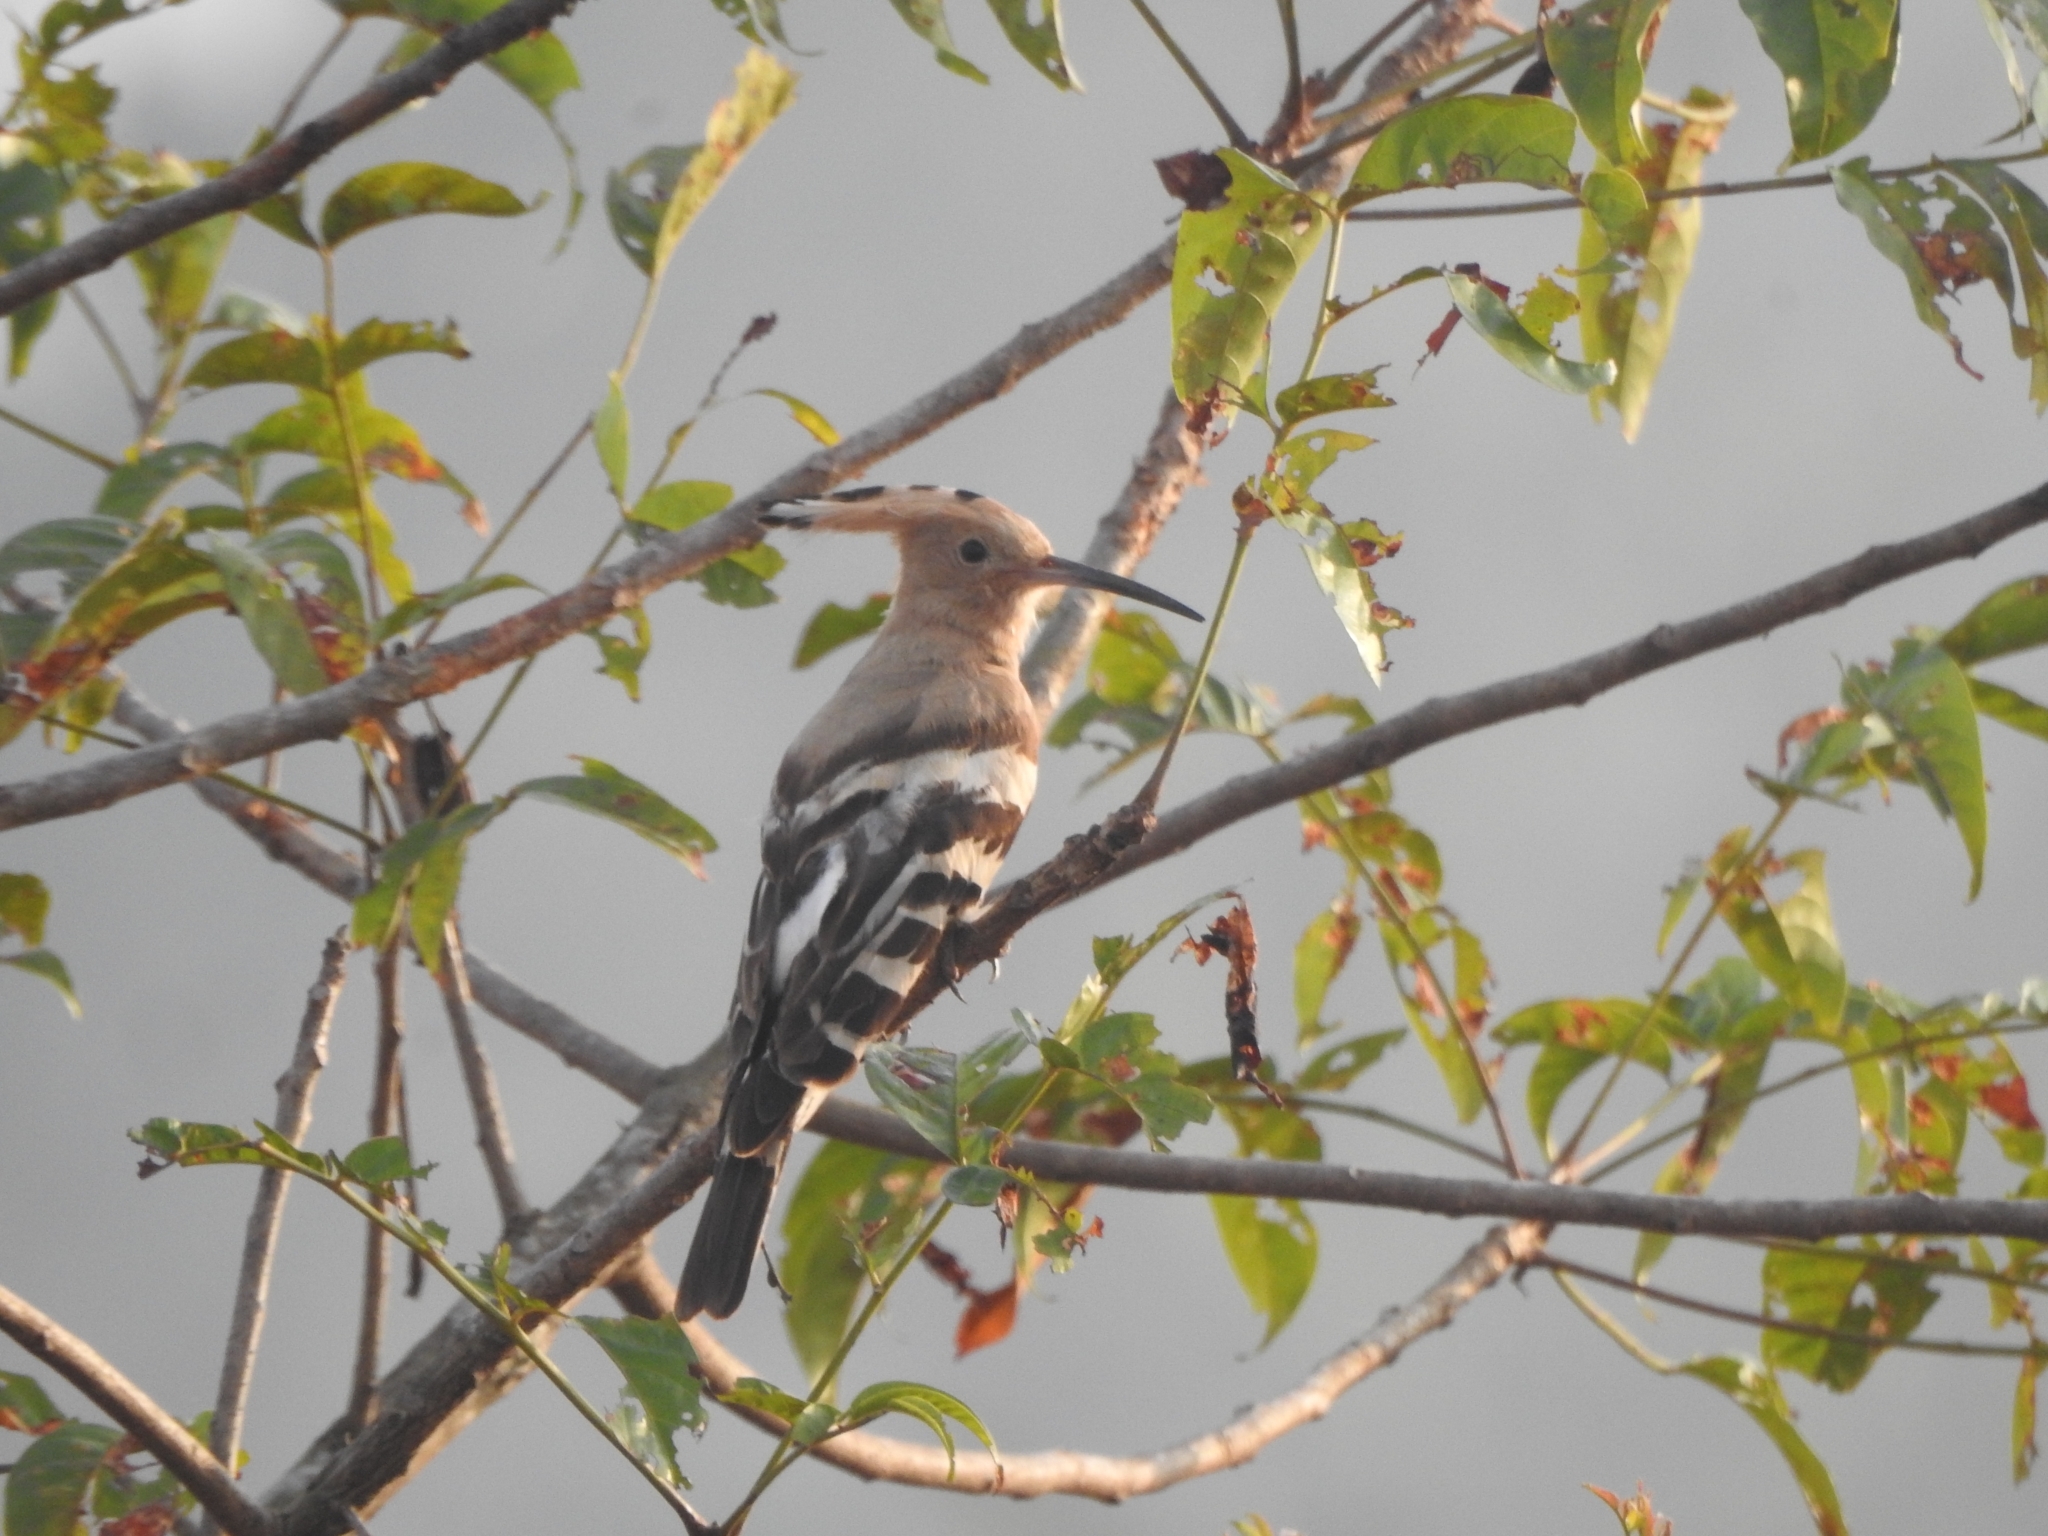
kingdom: Animalia
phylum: Chordata
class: Aves
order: Bucerotiformes
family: Upupidae
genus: Upupa
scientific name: Upupa epops
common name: Eurasian hoopoe
